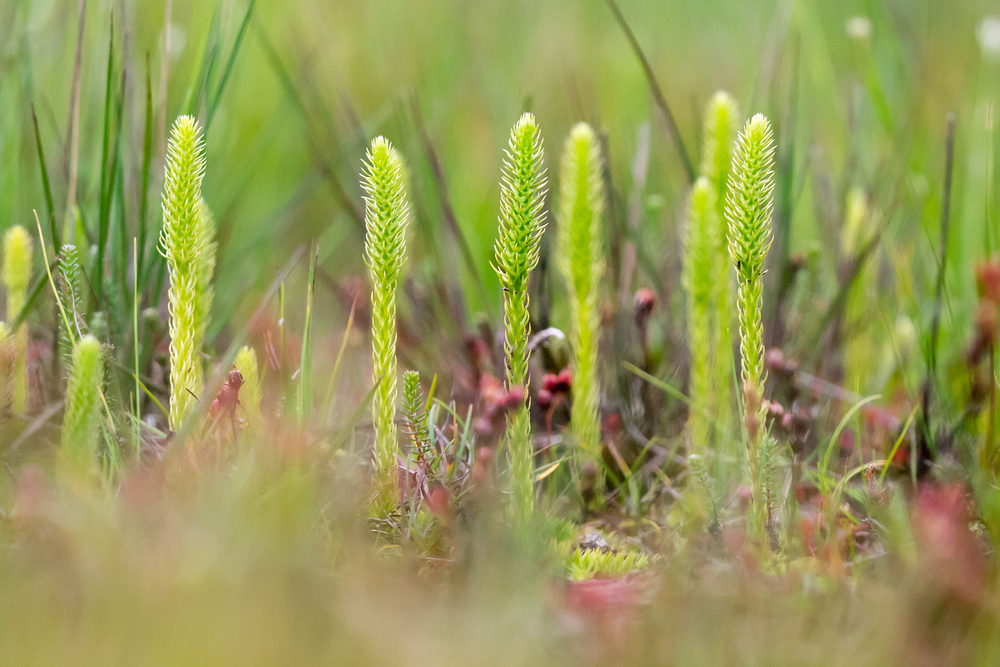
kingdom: Plantae
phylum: Tracheophyta
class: Lycopodiopsida
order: Lycopodiales
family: Lycopodiaceae
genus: Lycopodiella
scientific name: Lycopodiella inundata
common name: Marsh clubmoss
